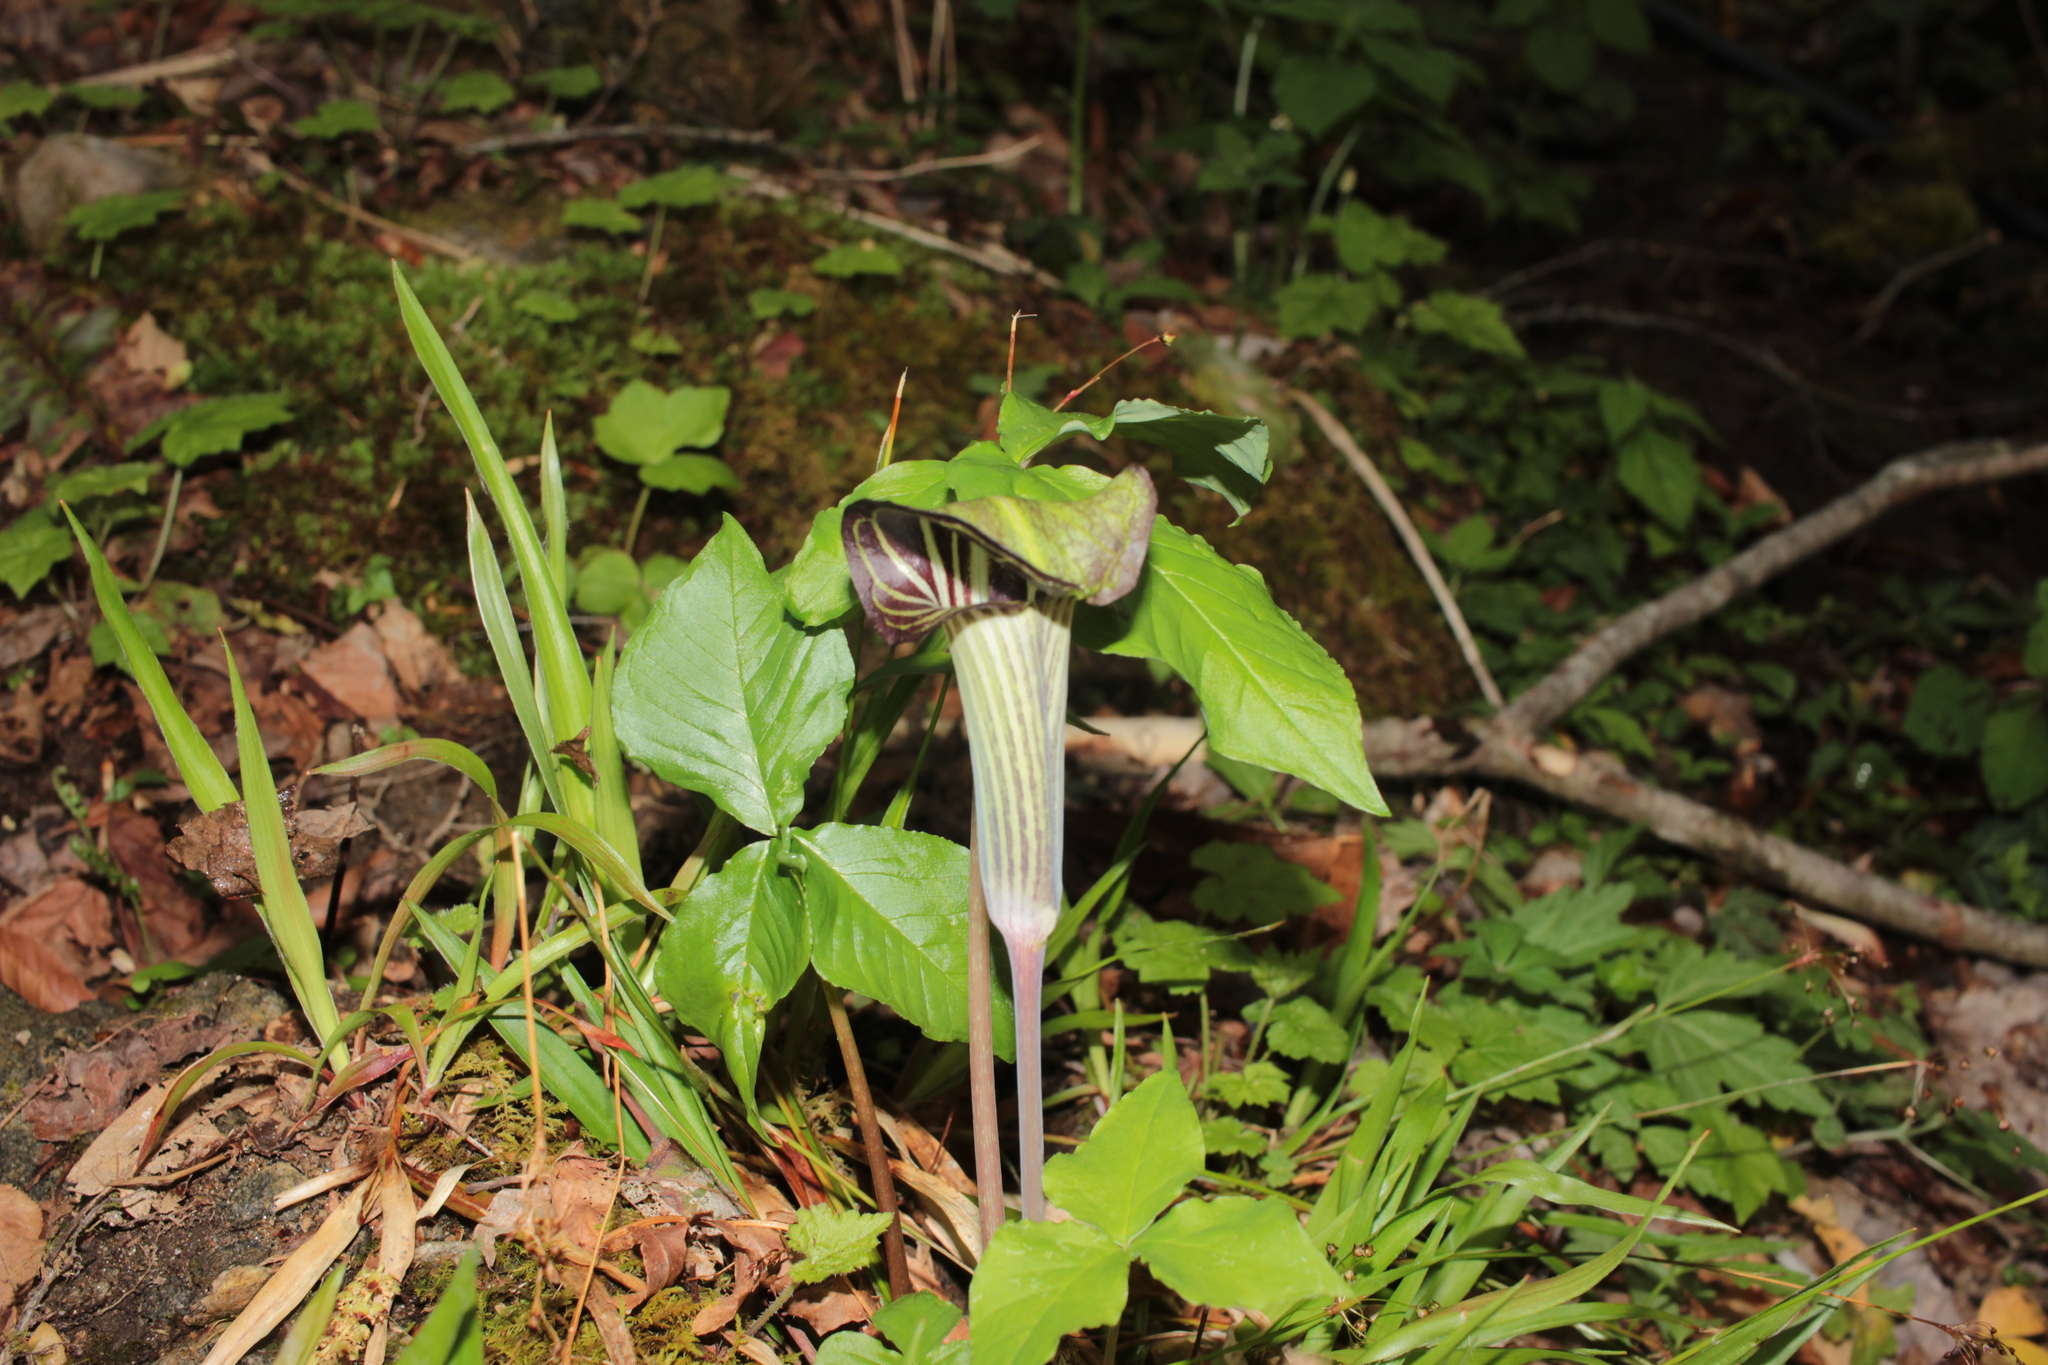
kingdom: Plantae
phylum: Tracheophyta
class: Liliopsida
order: Alismatales
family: Araceae
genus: Arisaema
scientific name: Arisaema triphyllum
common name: Jack-in-the-pulpit
